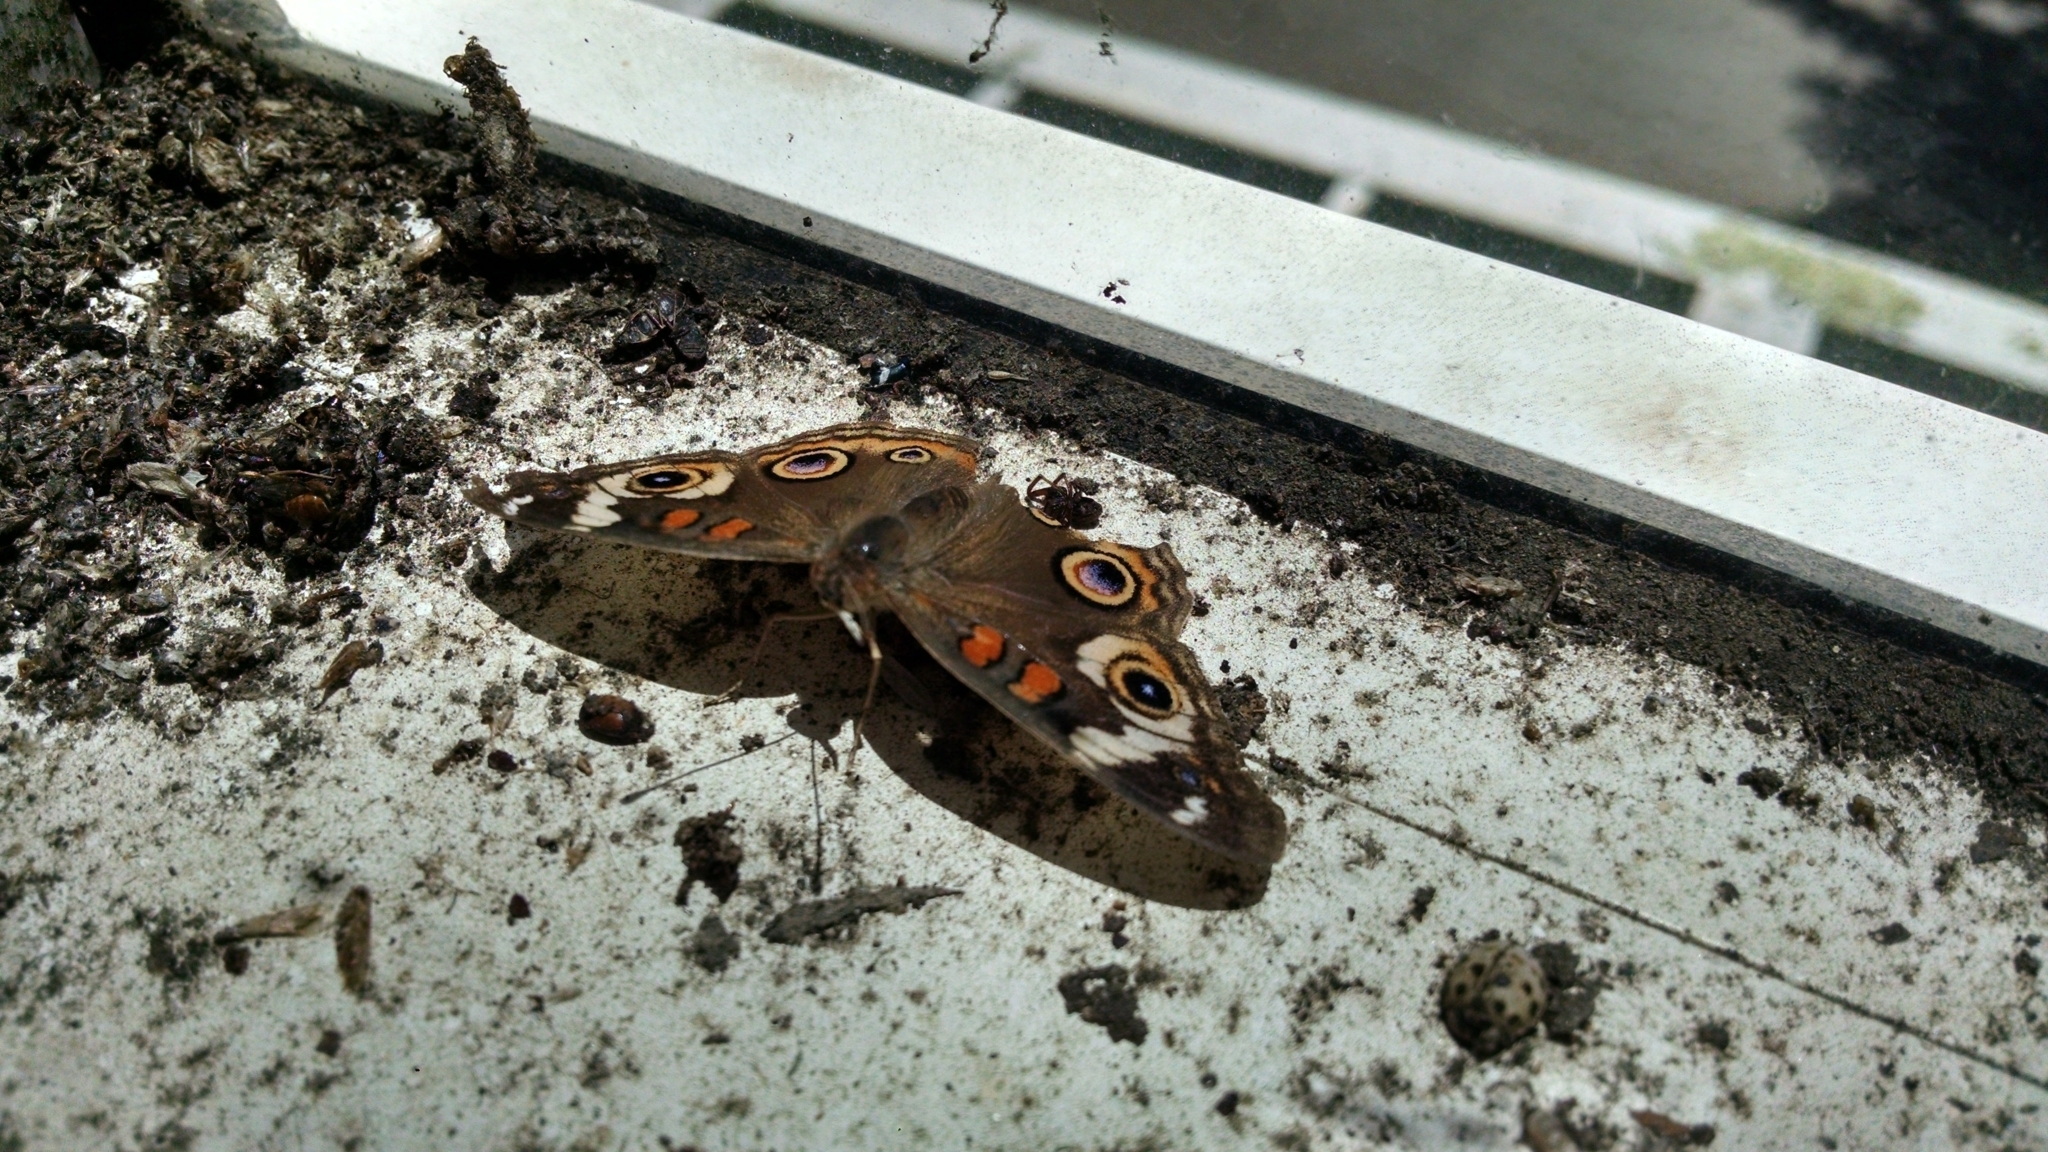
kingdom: Animalia
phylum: Arthropoda
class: Insecta
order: Lepidoptera
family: Nymphalidae
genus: Junonia
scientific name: Junonia grisea
